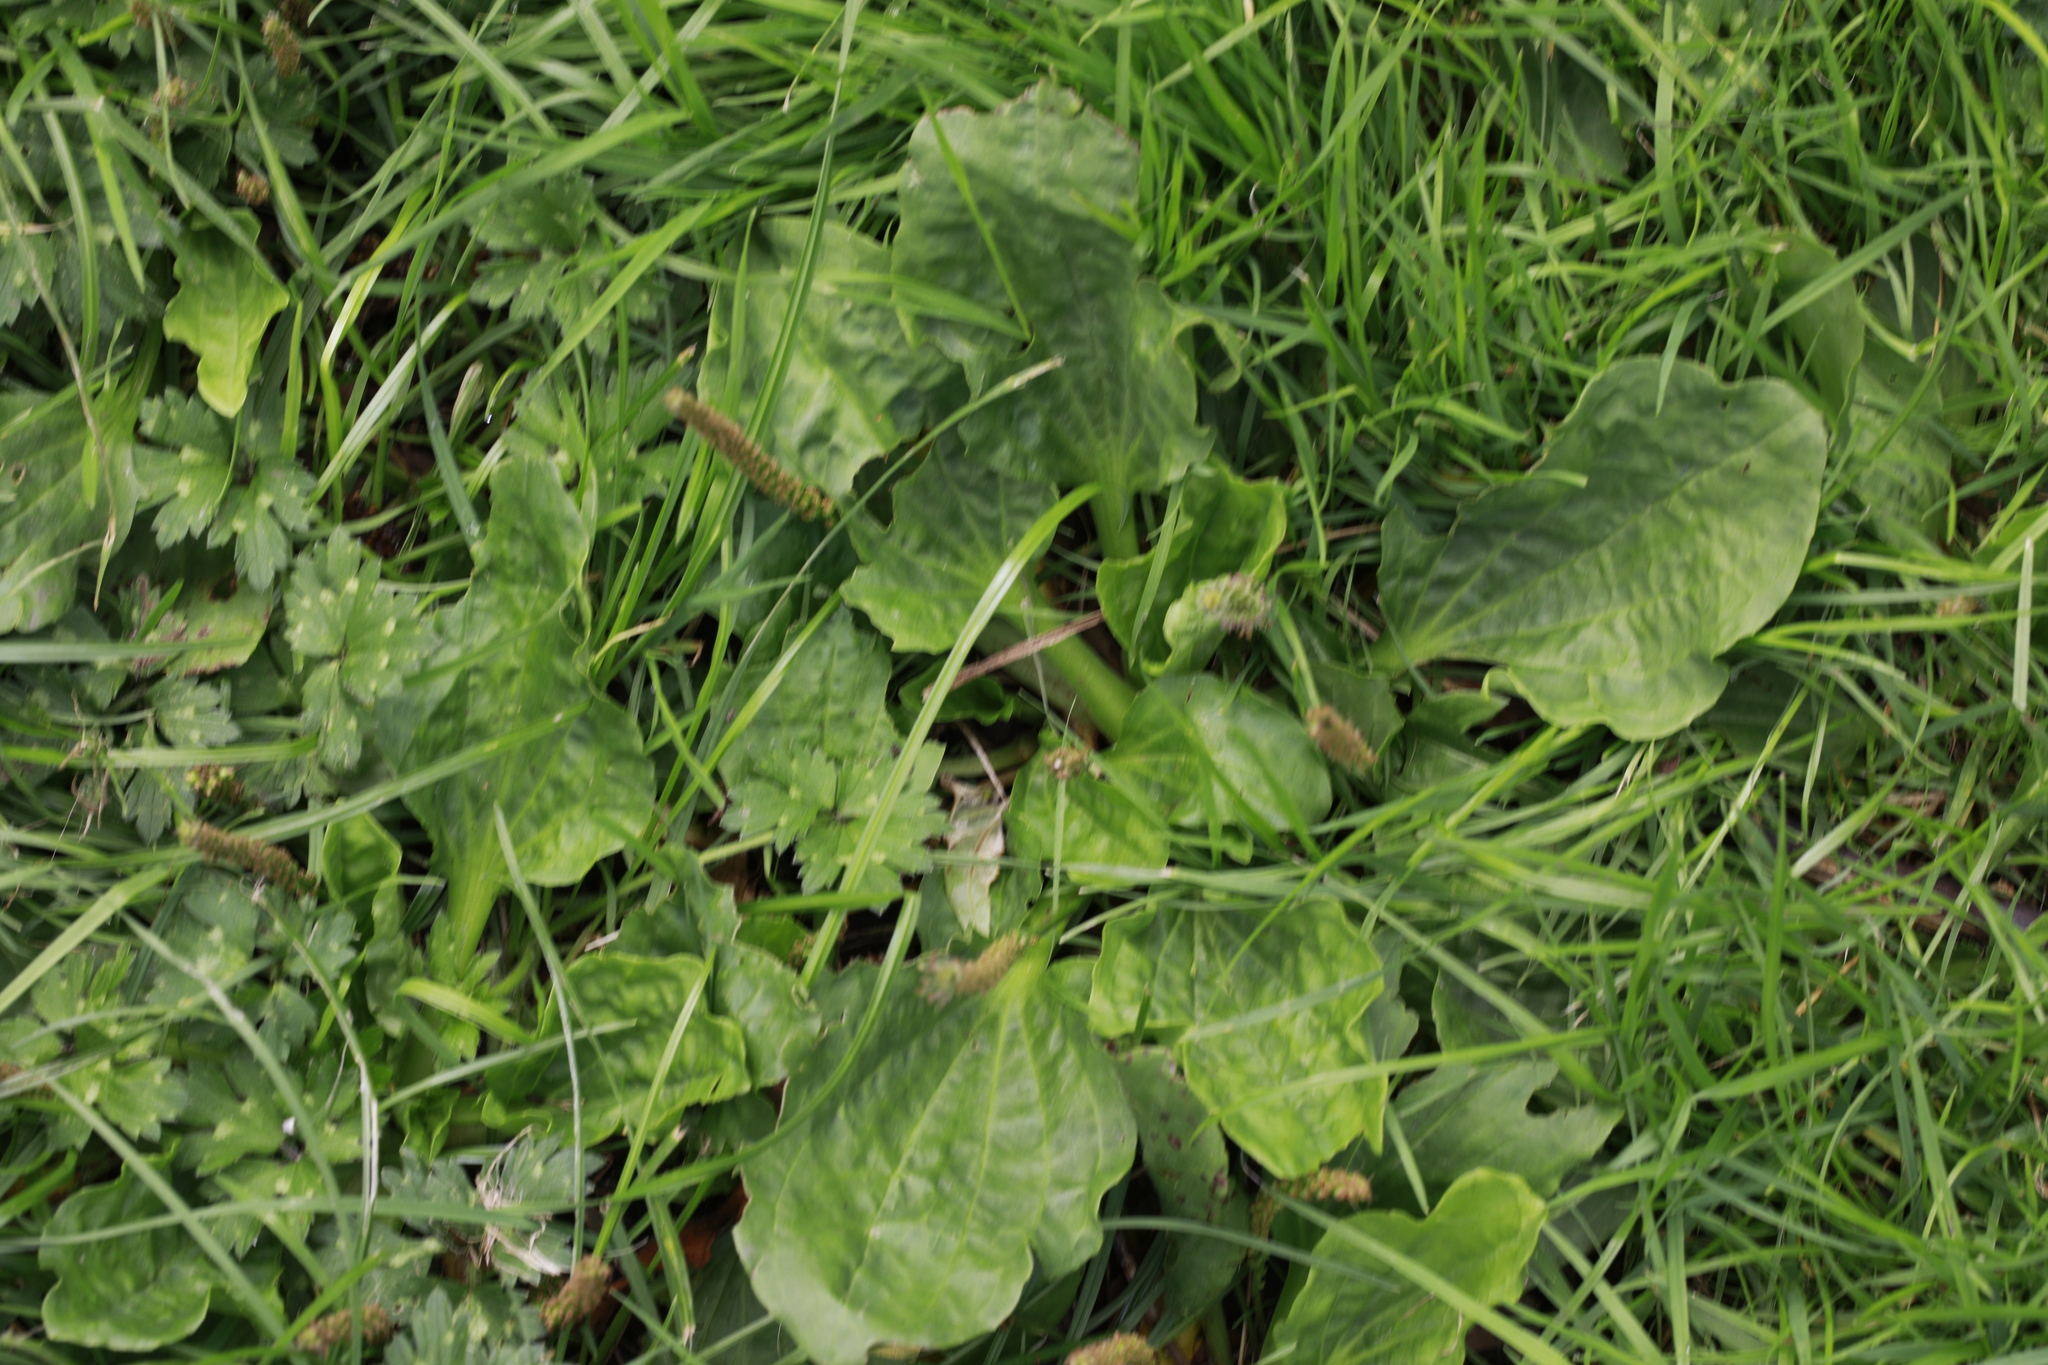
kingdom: Plantae
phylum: Tracheophyta
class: Magnoliopsida
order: Lamiales
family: Plantaginaceae
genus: Plantago
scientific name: Plantago major
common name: Common plantain
